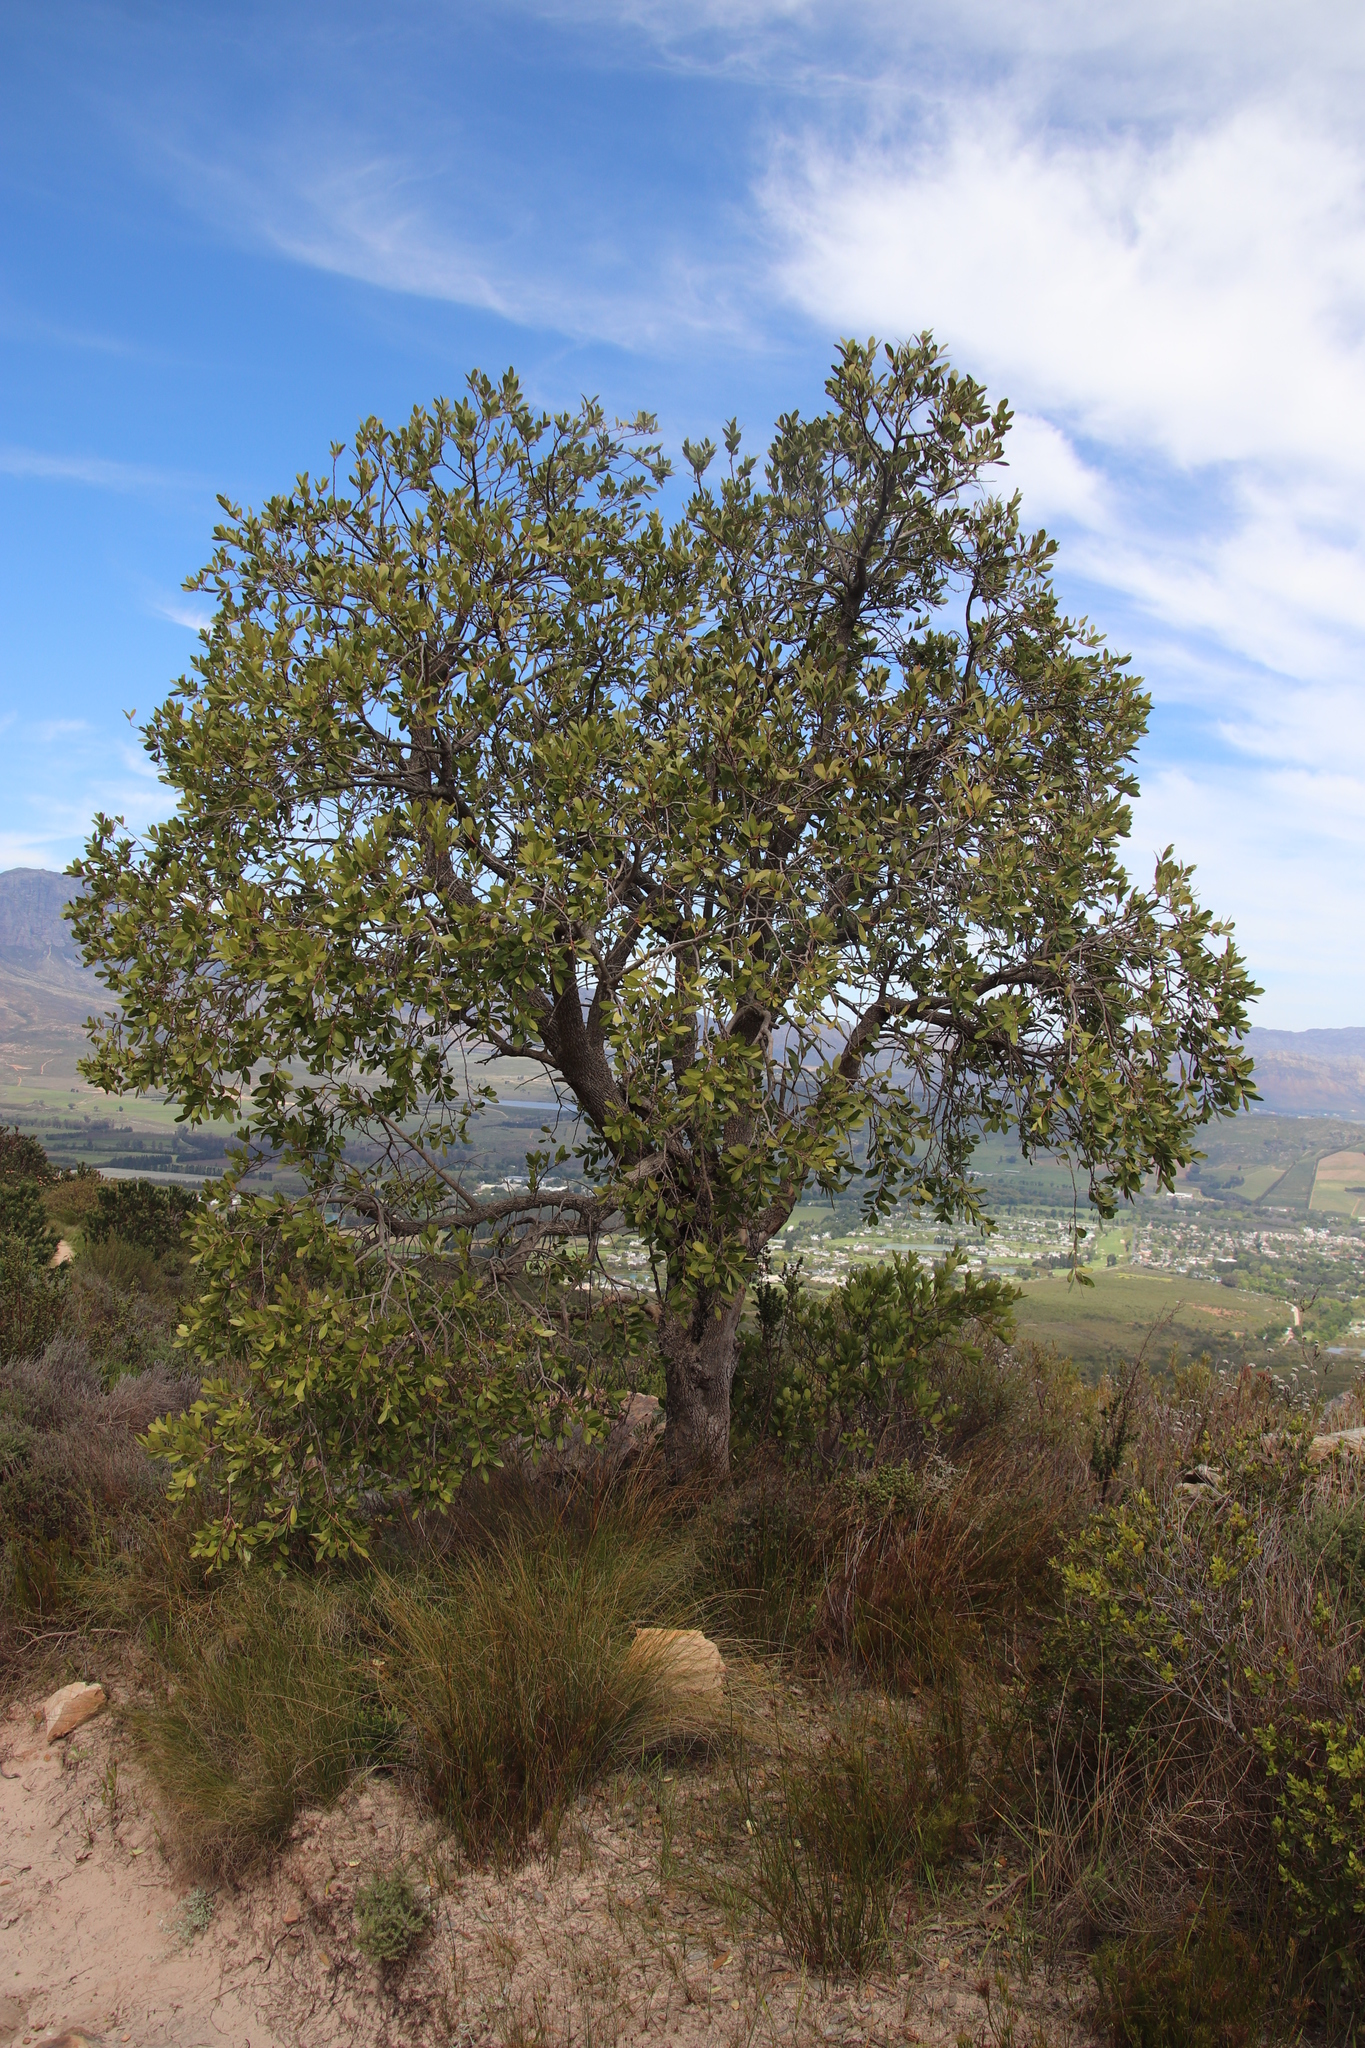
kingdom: Plantae
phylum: Tracheophyta
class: Magnoliopsida
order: Celastrales
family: Celastraceae
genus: Gymnosporia
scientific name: Gymnosporia laurina
